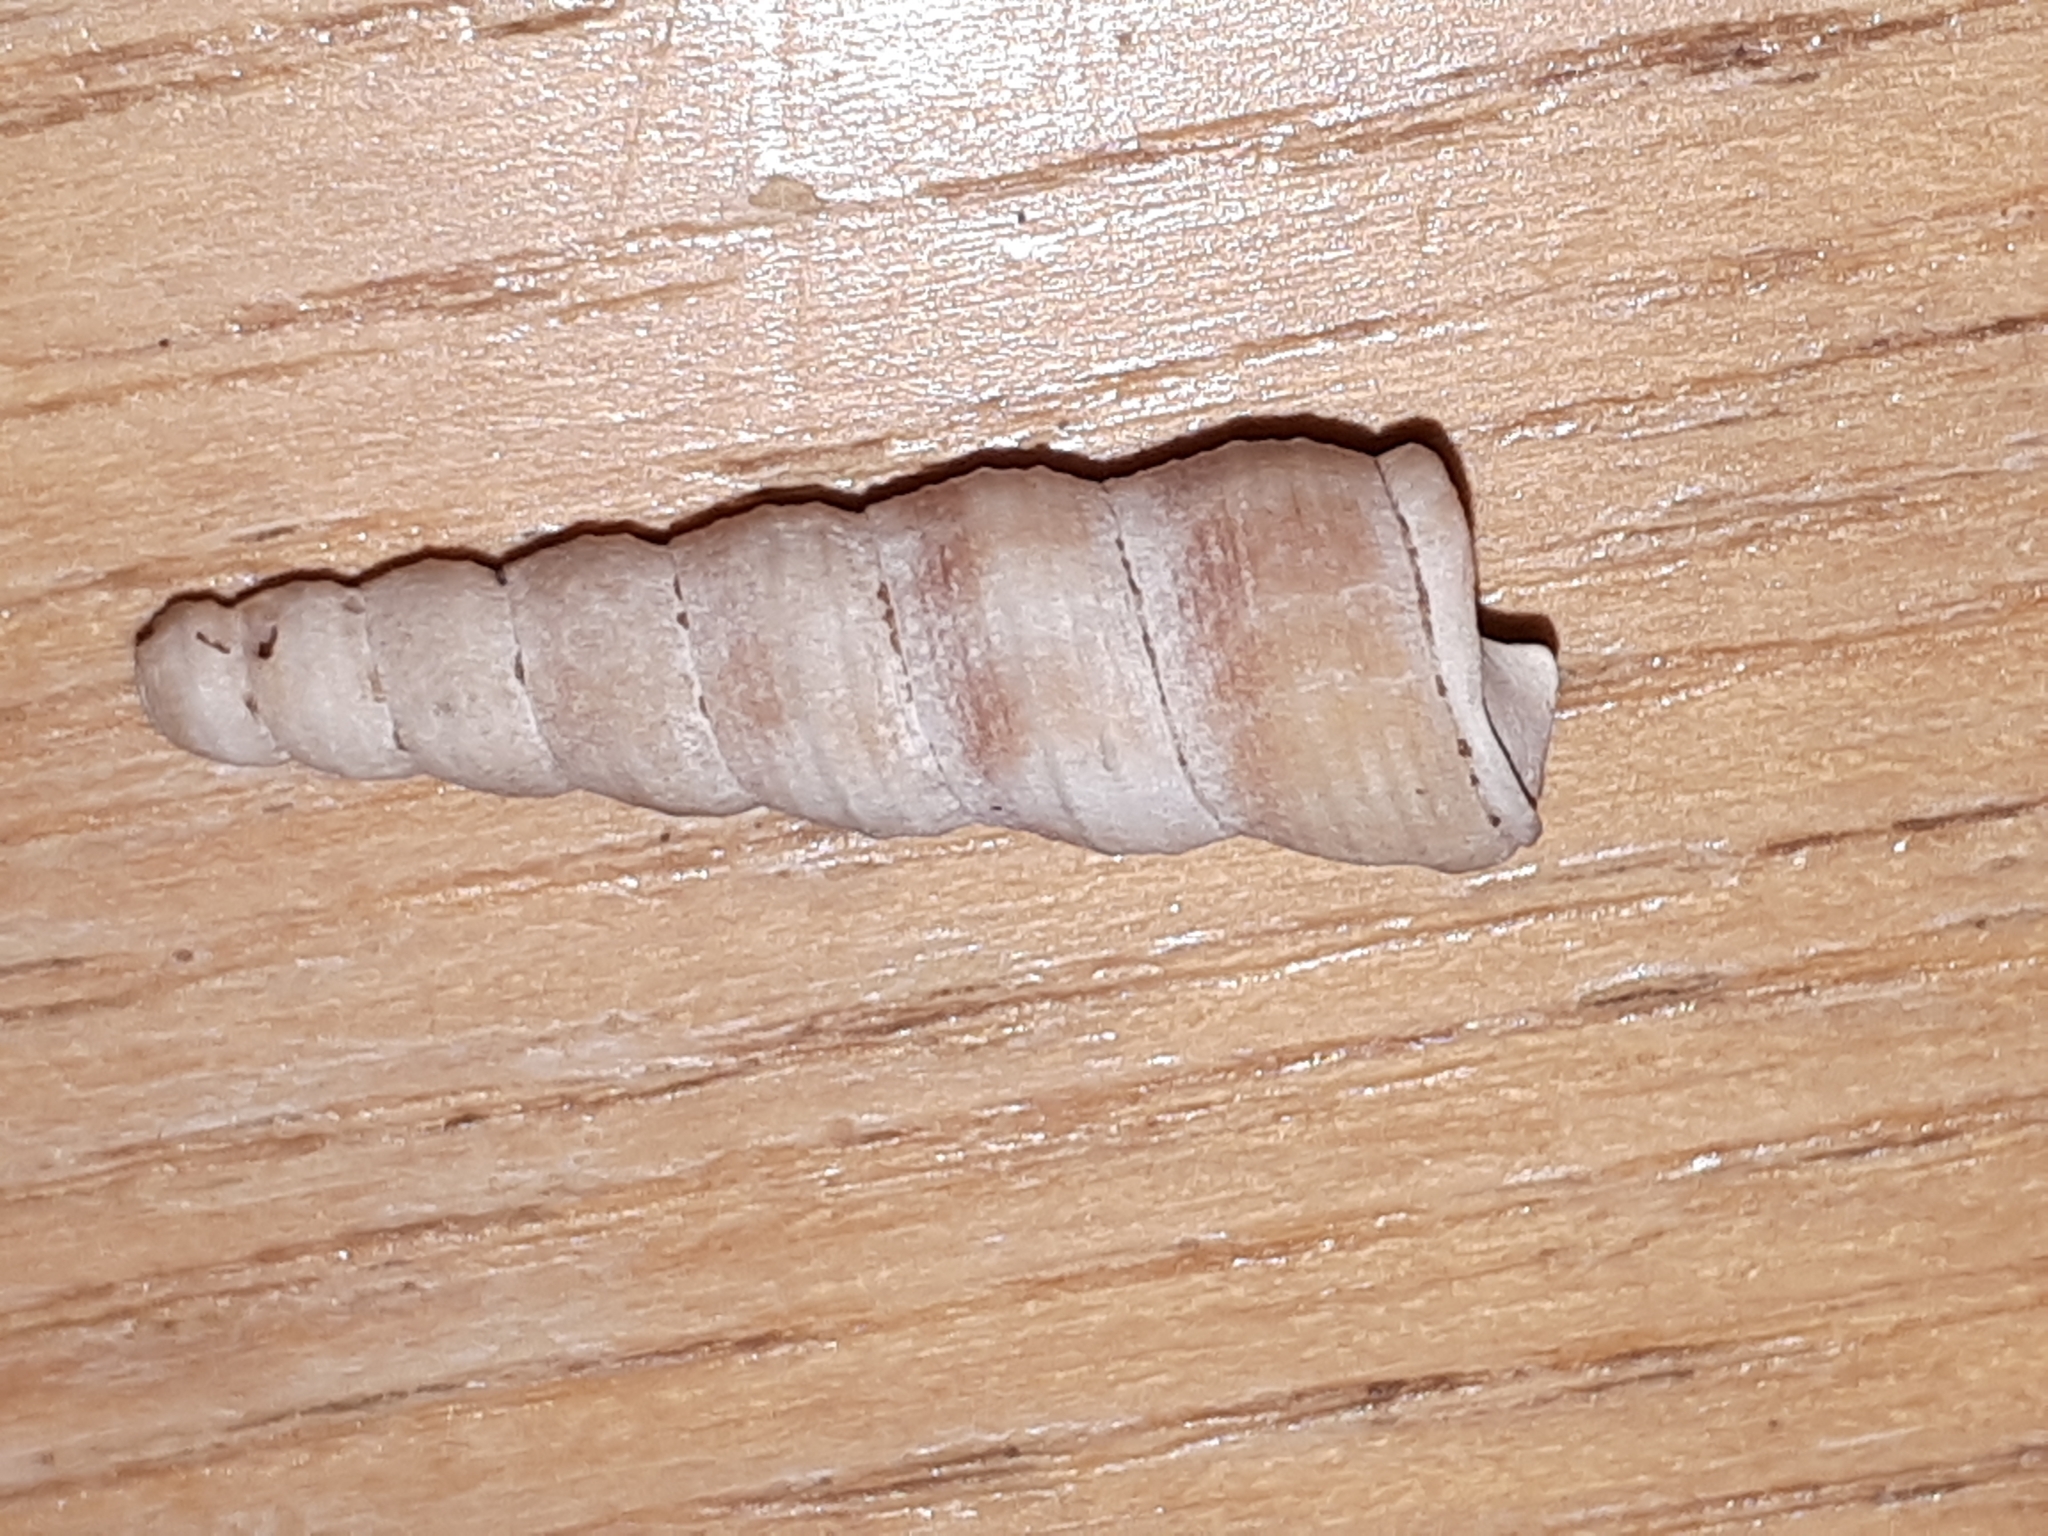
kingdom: Animalia
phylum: Mollusca
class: Gastropoda
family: Turritellidae
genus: Turritellinella
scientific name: Turritellinella tricarinata
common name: Auger shell
